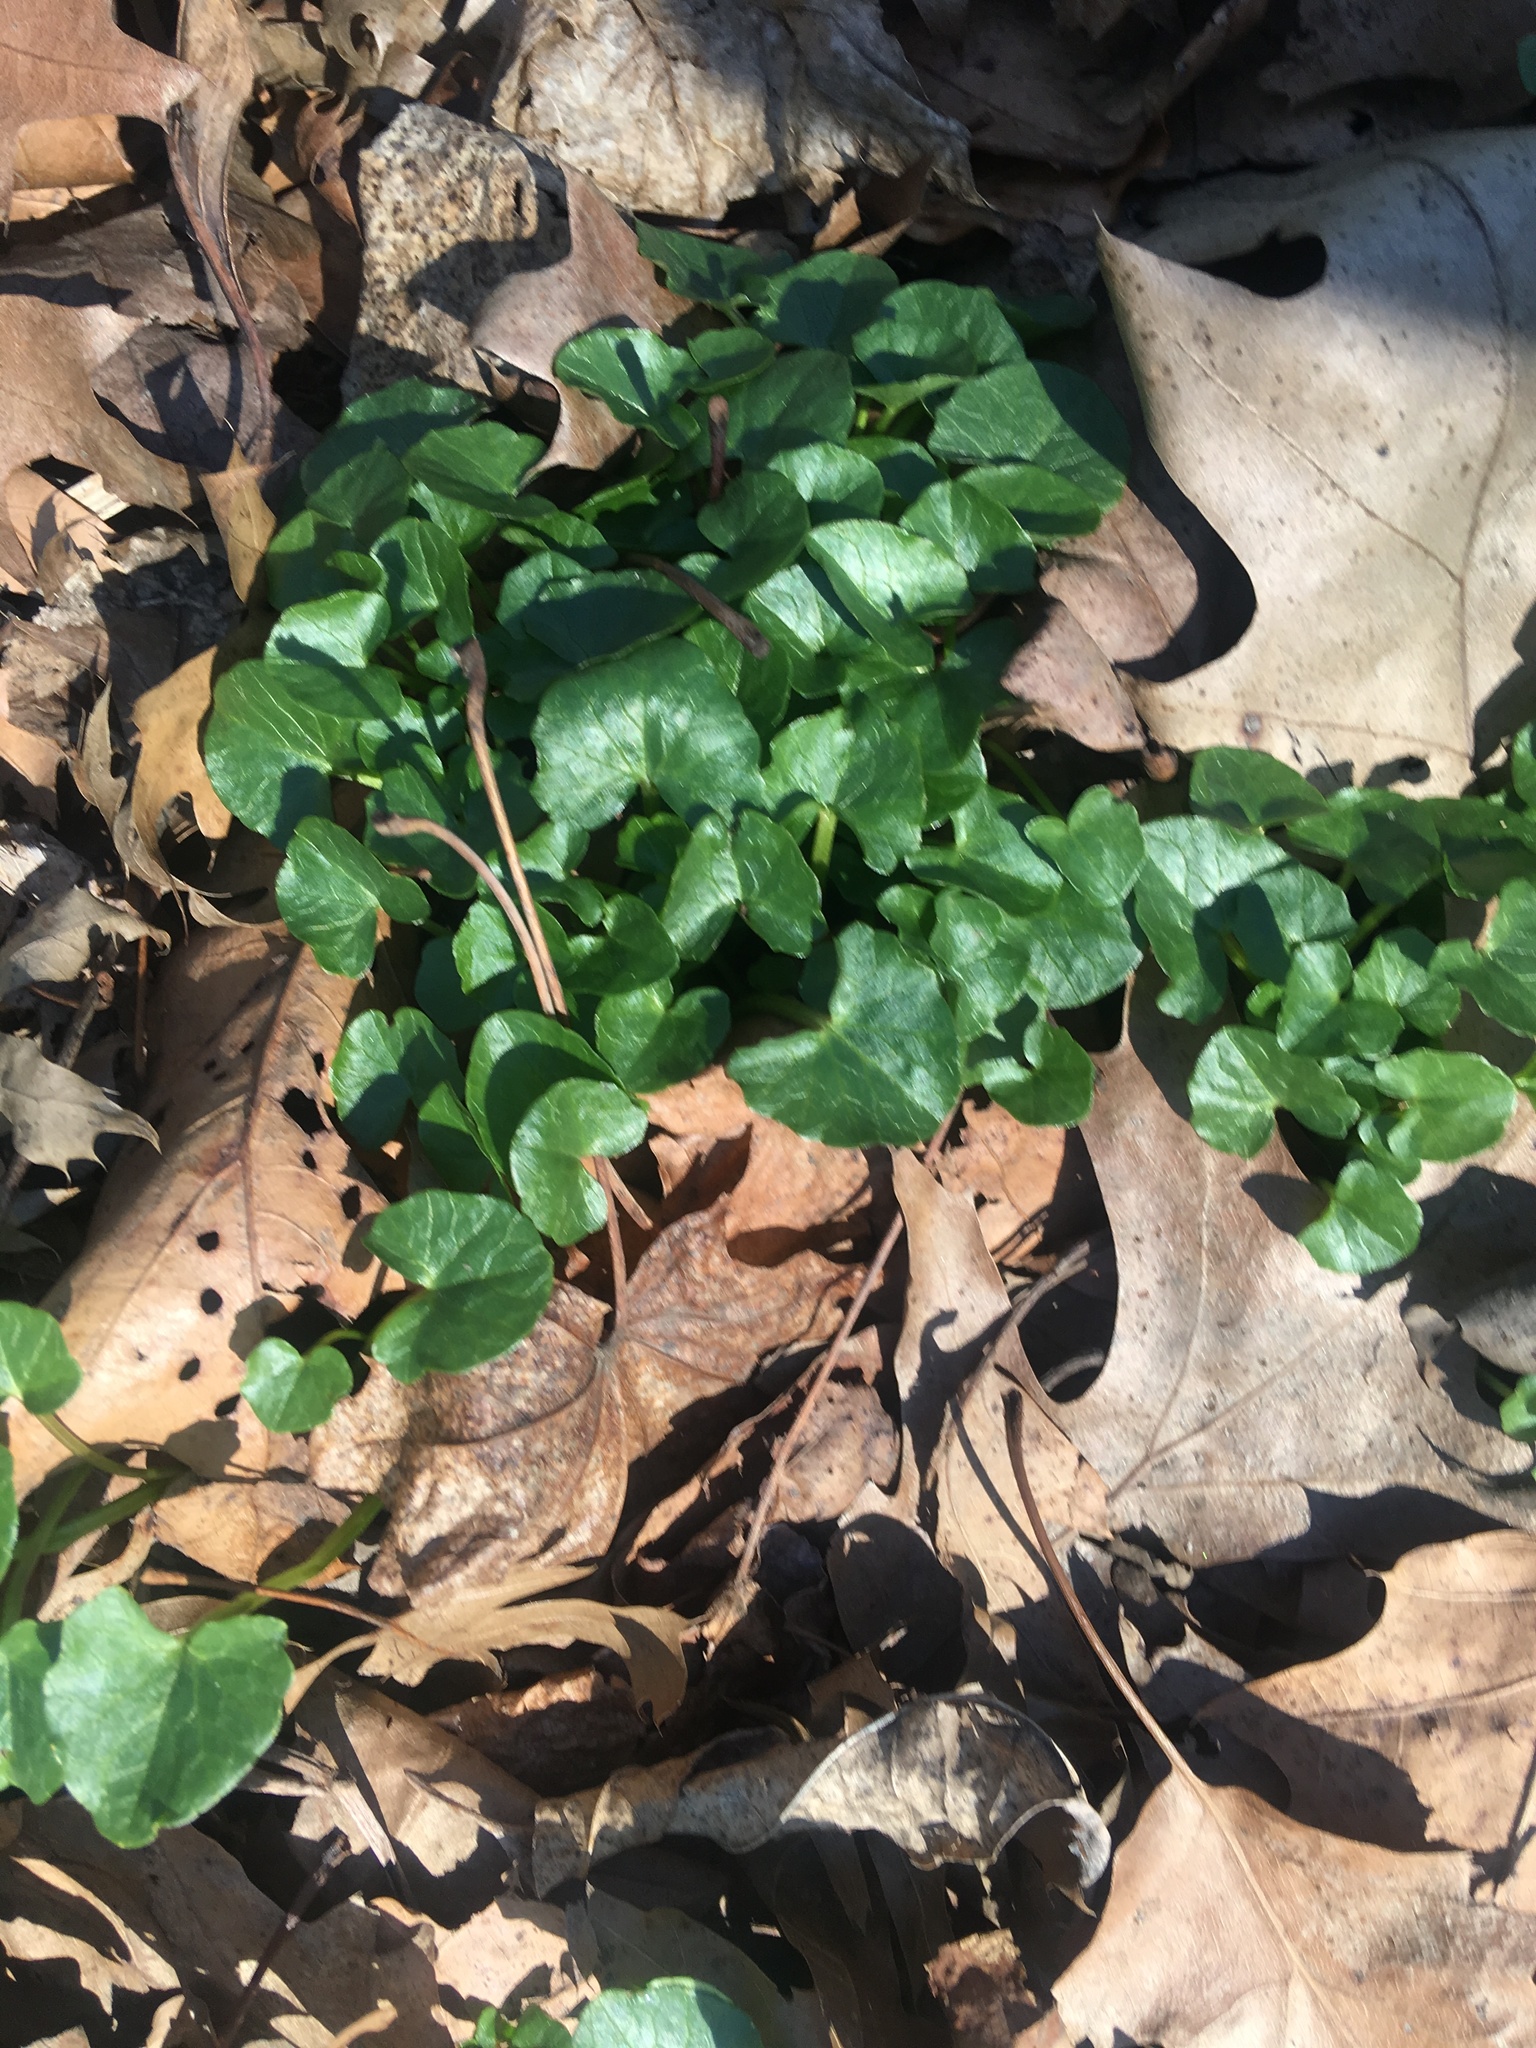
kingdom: Plantae
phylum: Tracheophyta
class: Magnoliopsida
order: Ranunculales
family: Ranunculaceae
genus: Ficaria
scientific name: Ficaria verna
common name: Lesser celandine
